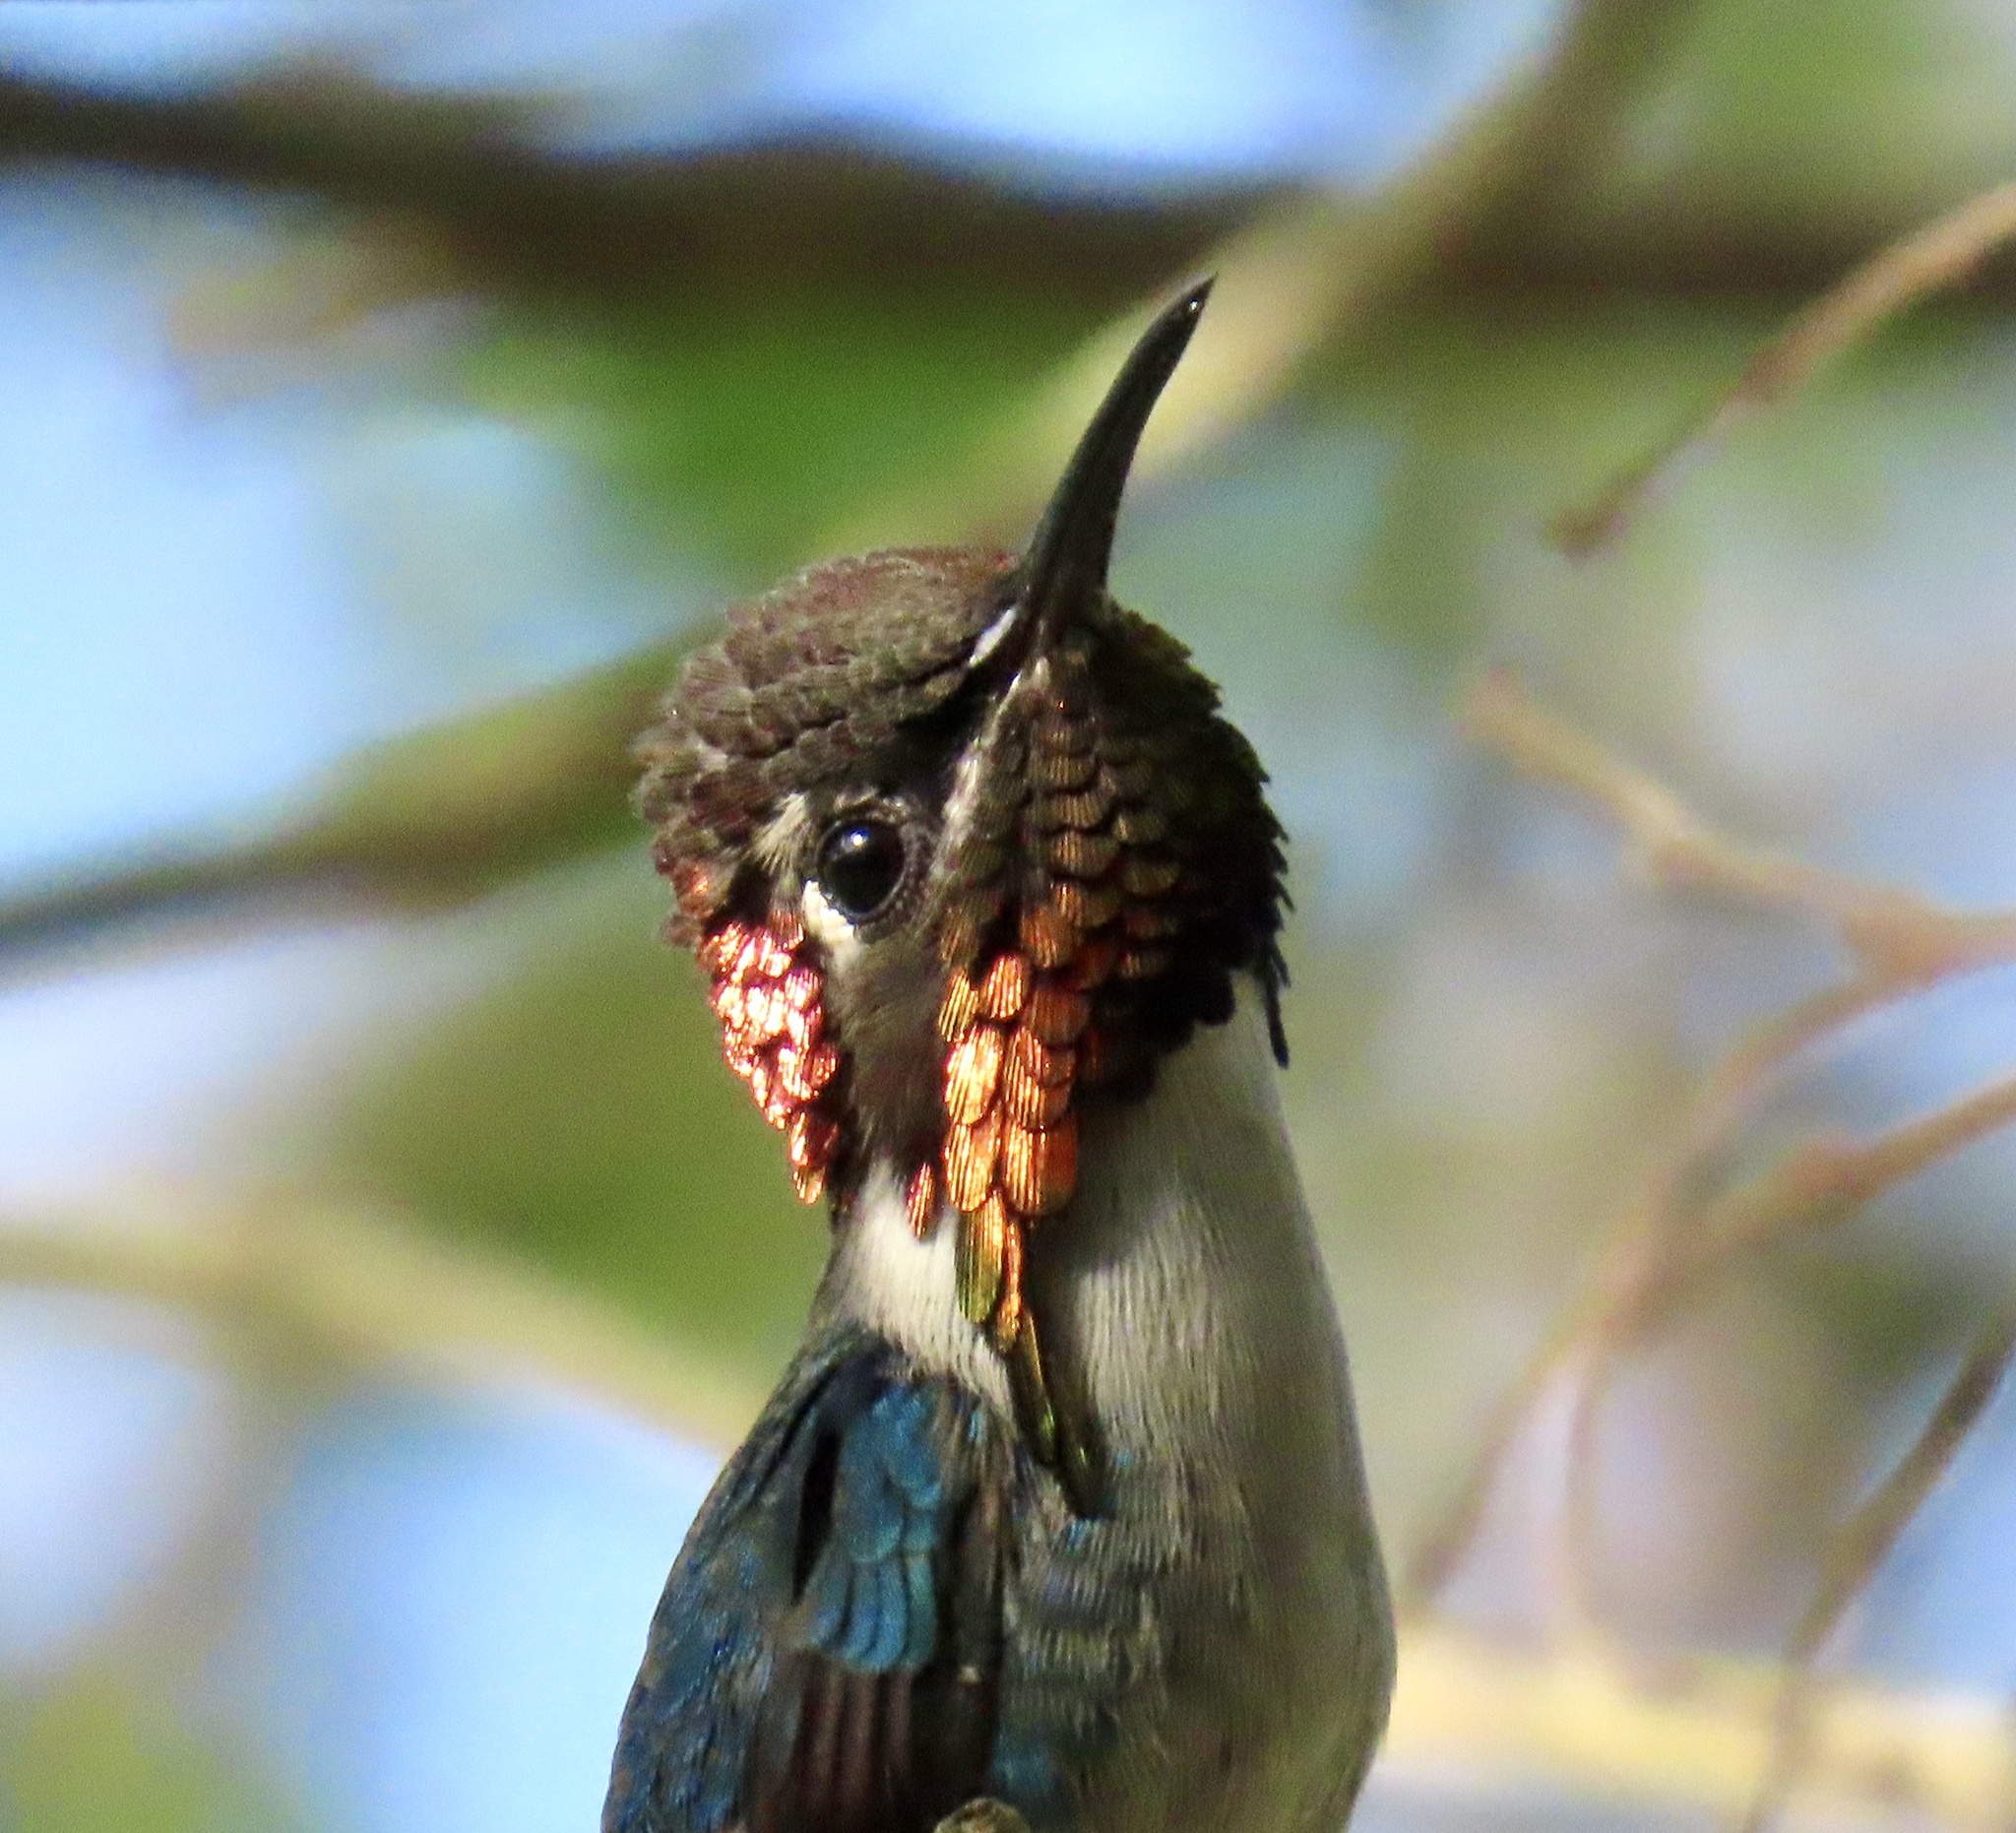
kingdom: Animalia
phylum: Chordata
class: Aves
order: Apodiformes
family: Trochilidae
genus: Mellisuga
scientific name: Mellisuga helenae
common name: Bee hummingbird
